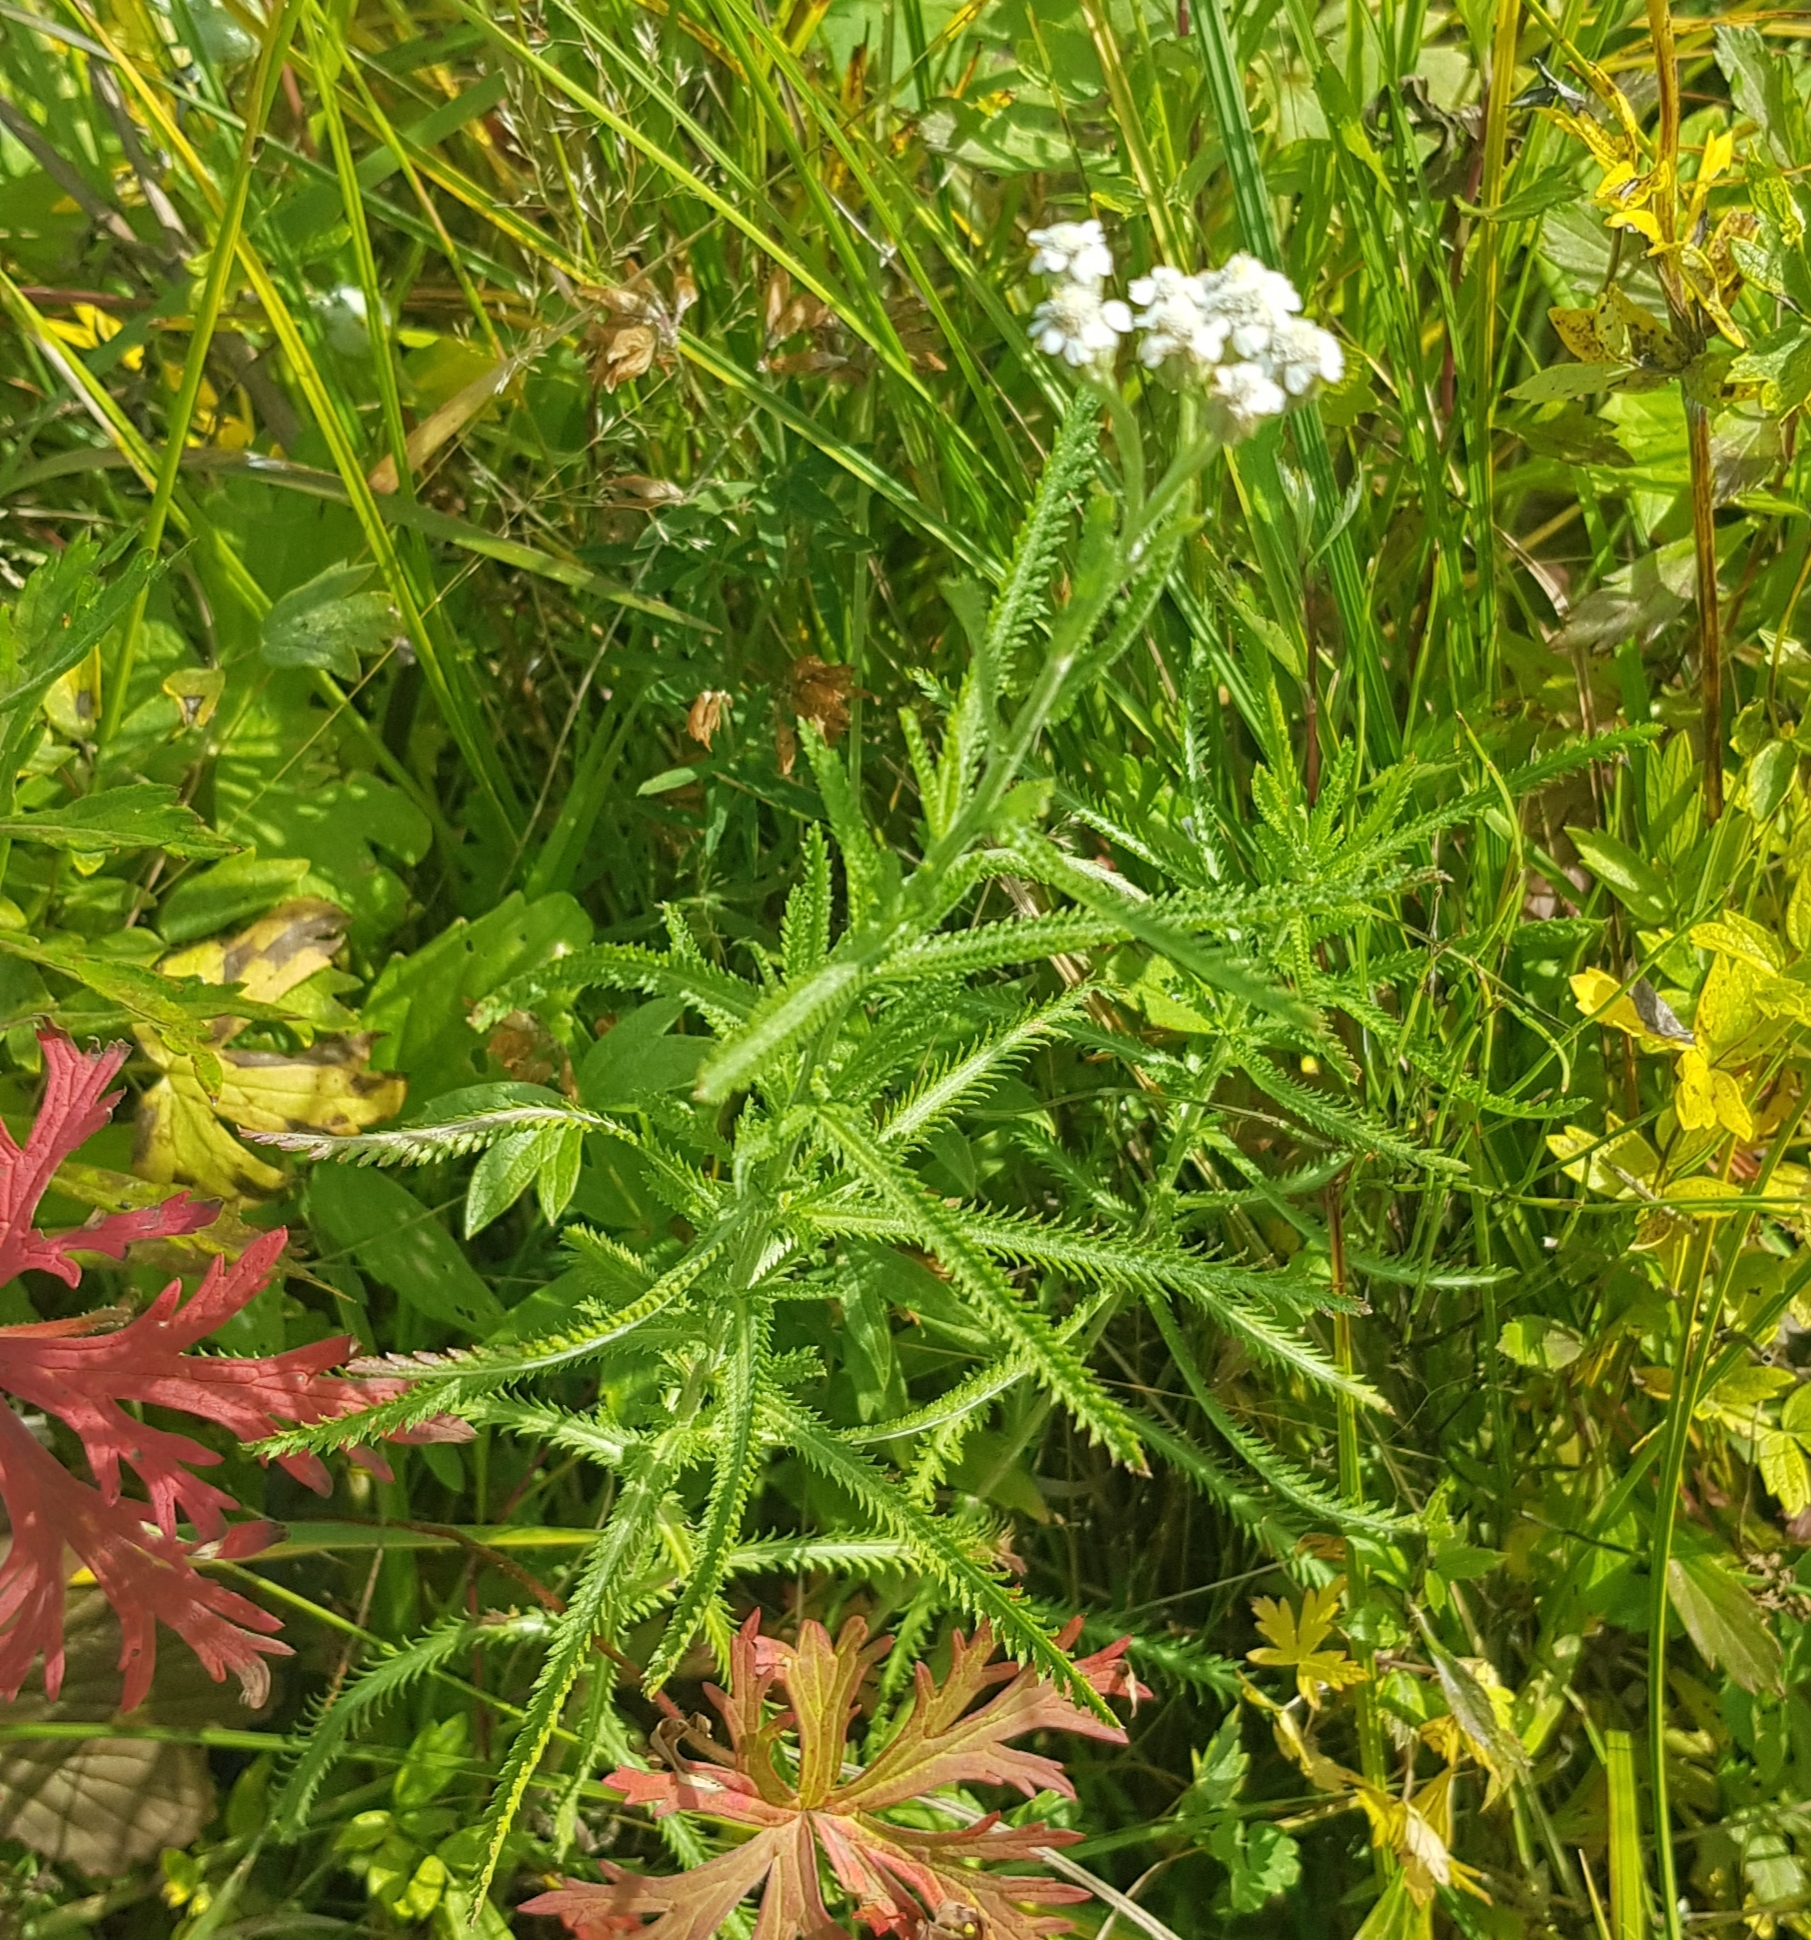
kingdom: Plantae
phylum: Tracheophyta
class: Magnoliopsida
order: Asterales
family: Asteraceae
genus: Achillea
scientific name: Achillea alpina
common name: Siberian yarrow
